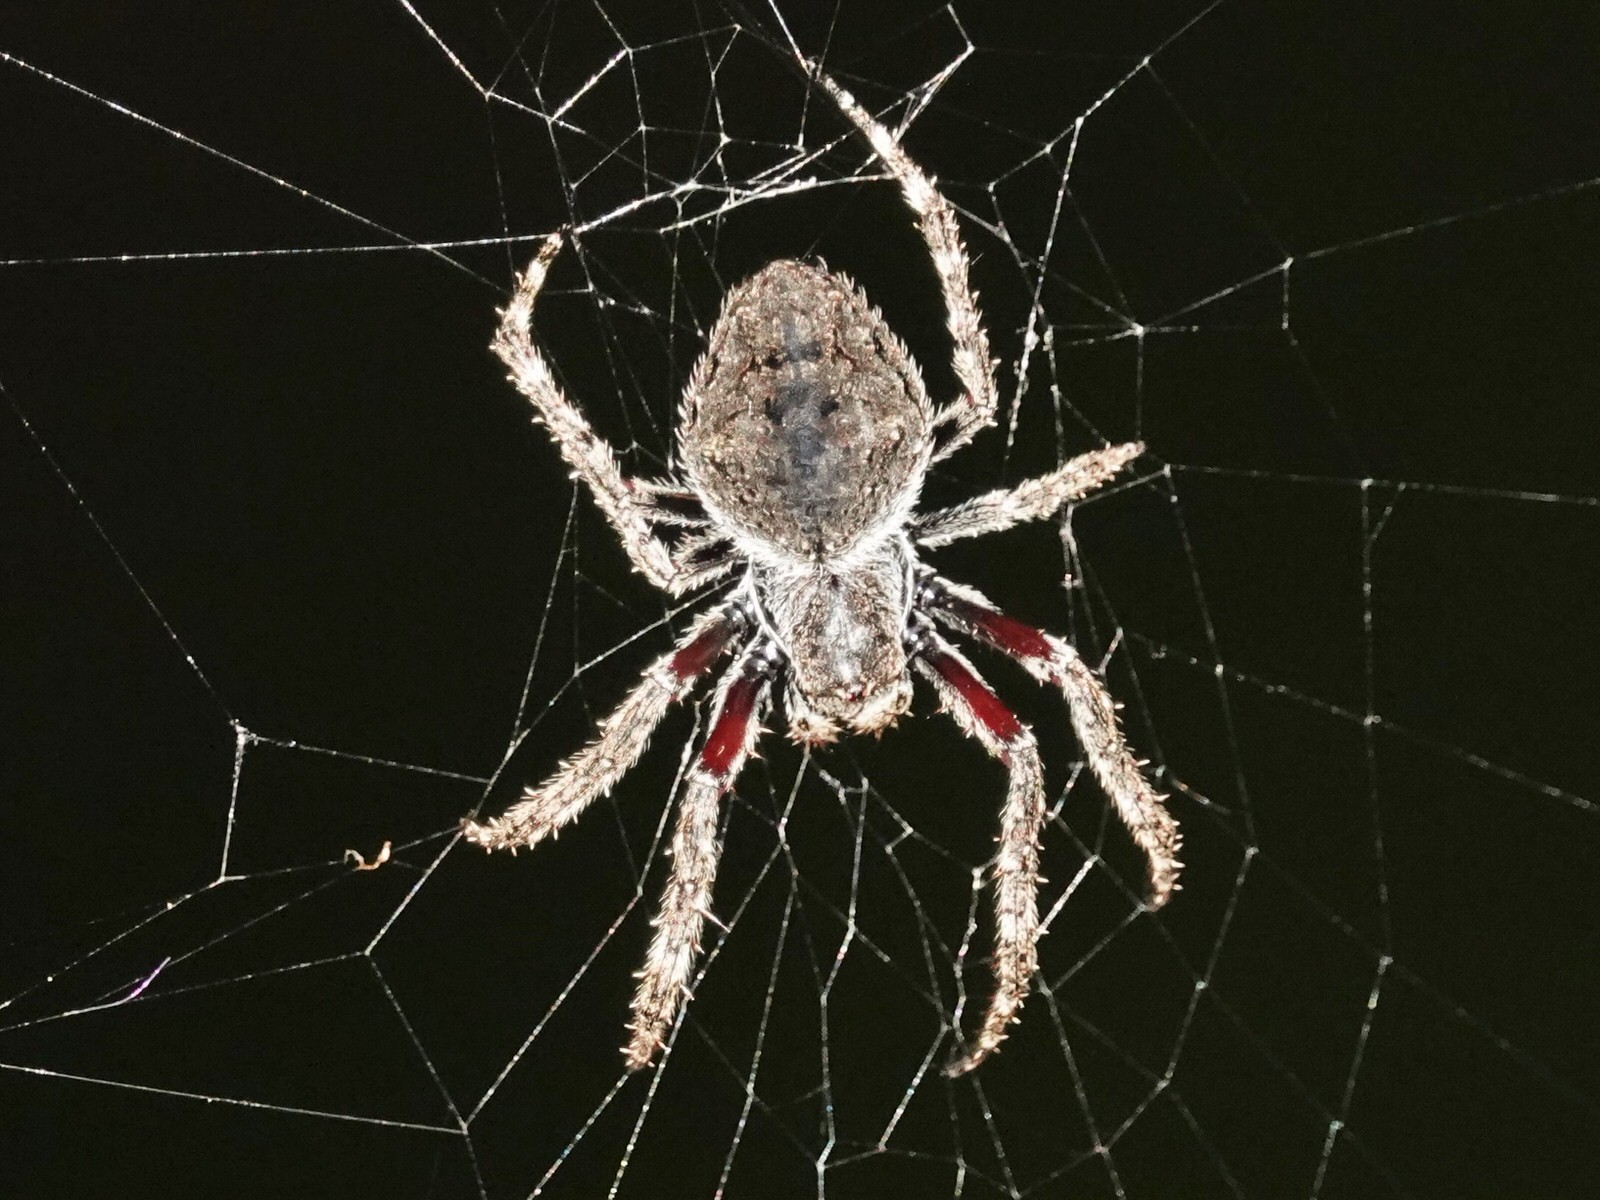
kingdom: Animalia
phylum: Arthropoda
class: Arachnida
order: Araneae
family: Araneidae
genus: Eriophora
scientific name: Eriophora pustulosa
